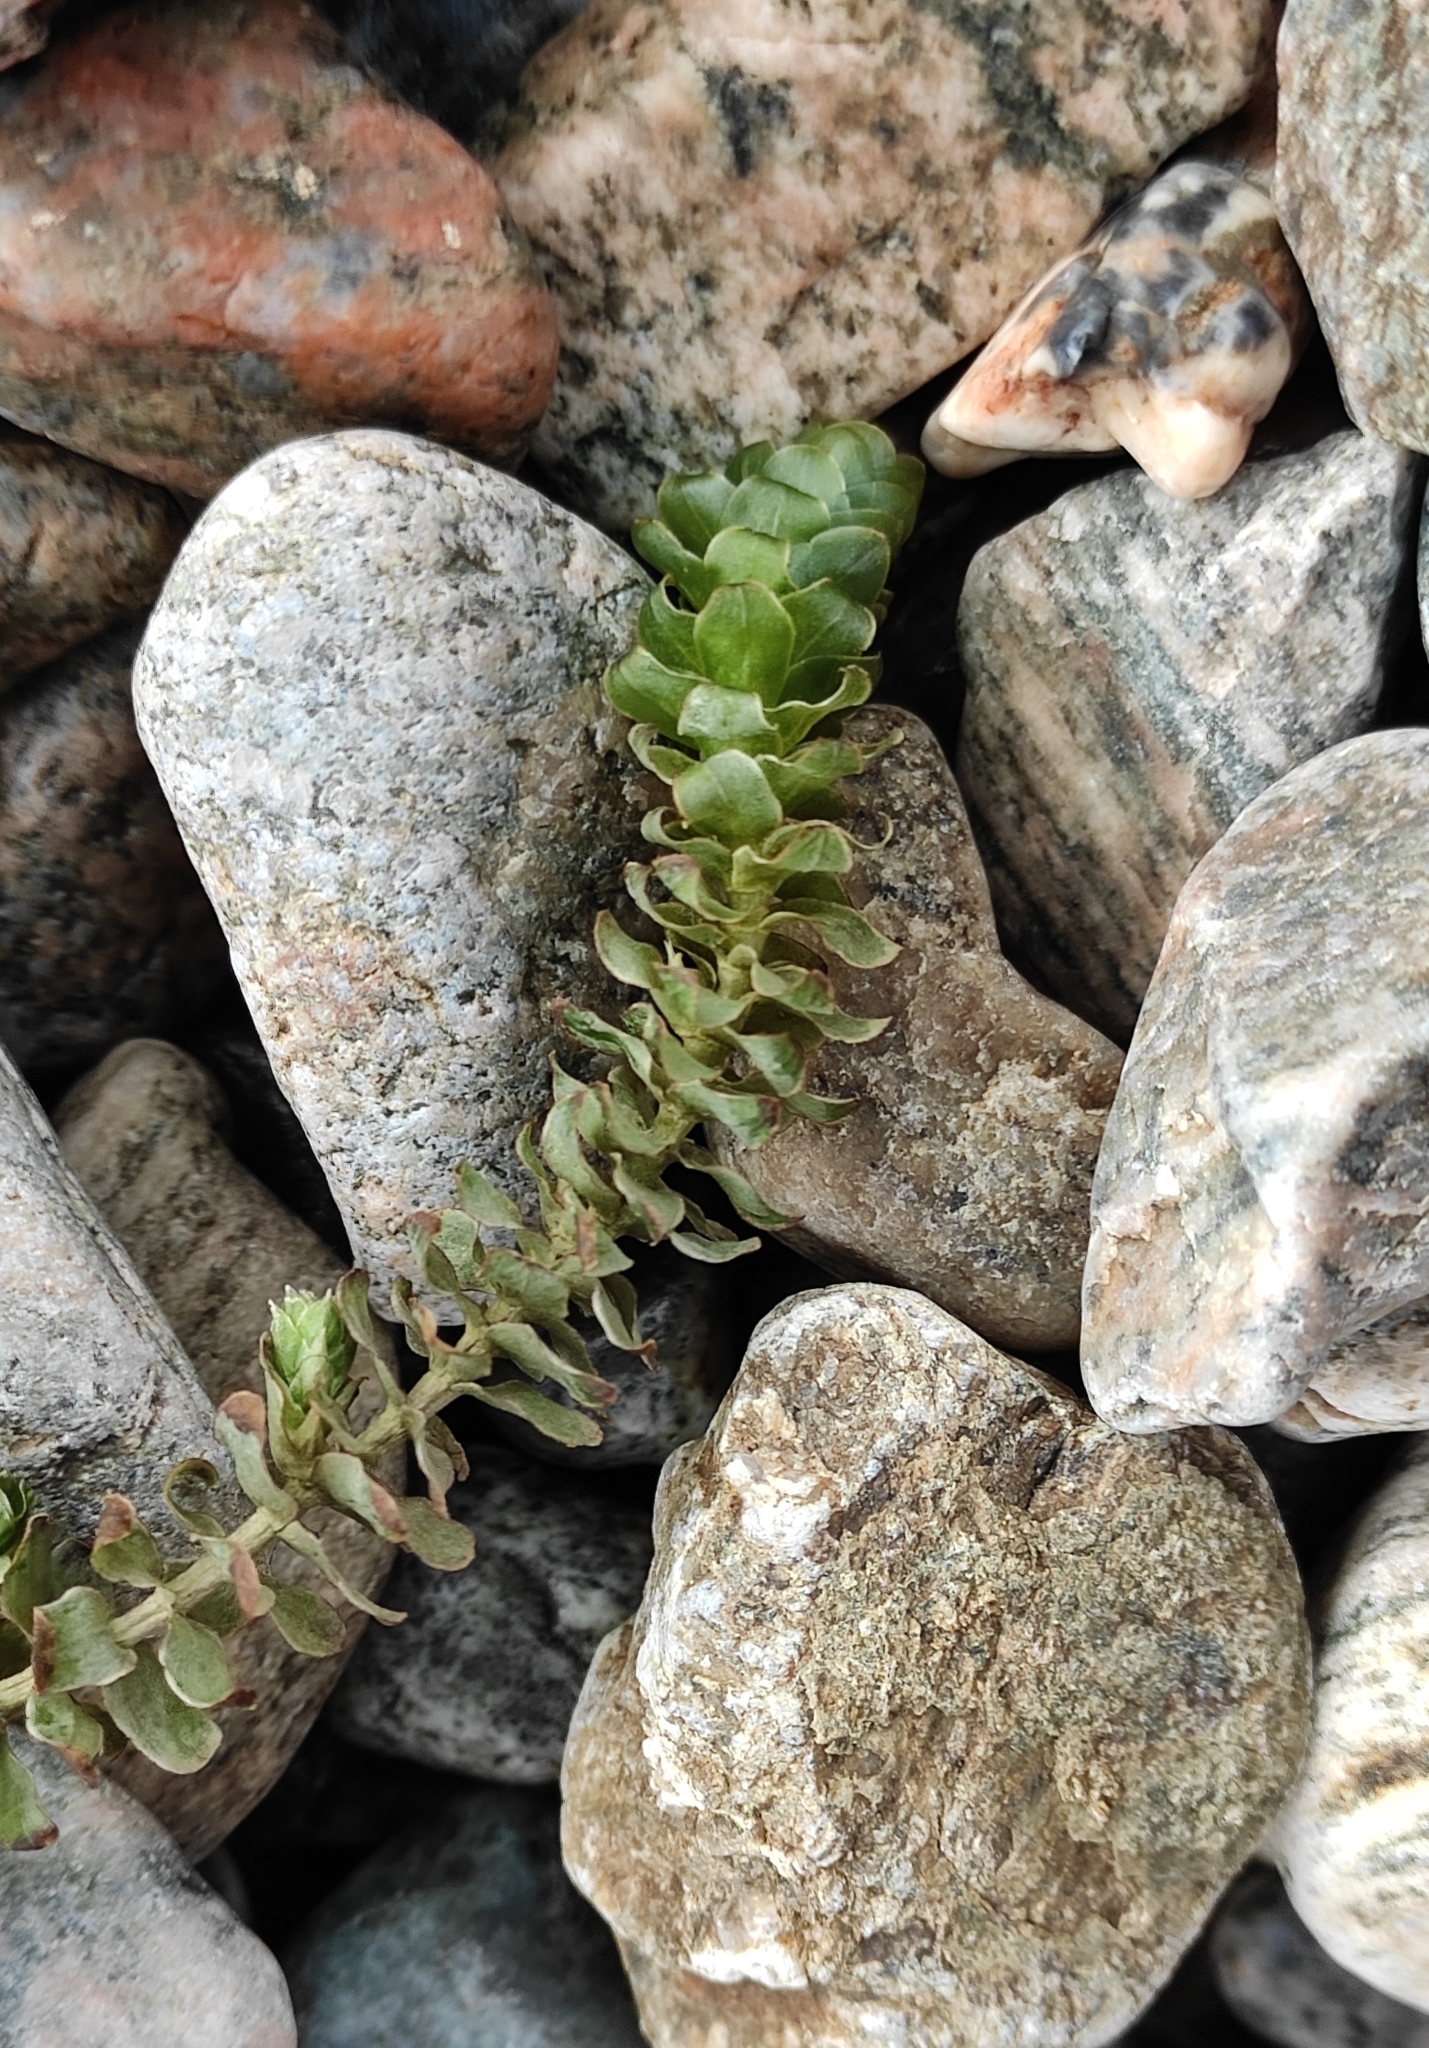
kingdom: Plantae
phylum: Tracheophyta
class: Liliopsida
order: Alismatales
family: Hydrocharitaceae
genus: Elodea
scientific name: Elodea canadensis
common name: Canadian waterweed
